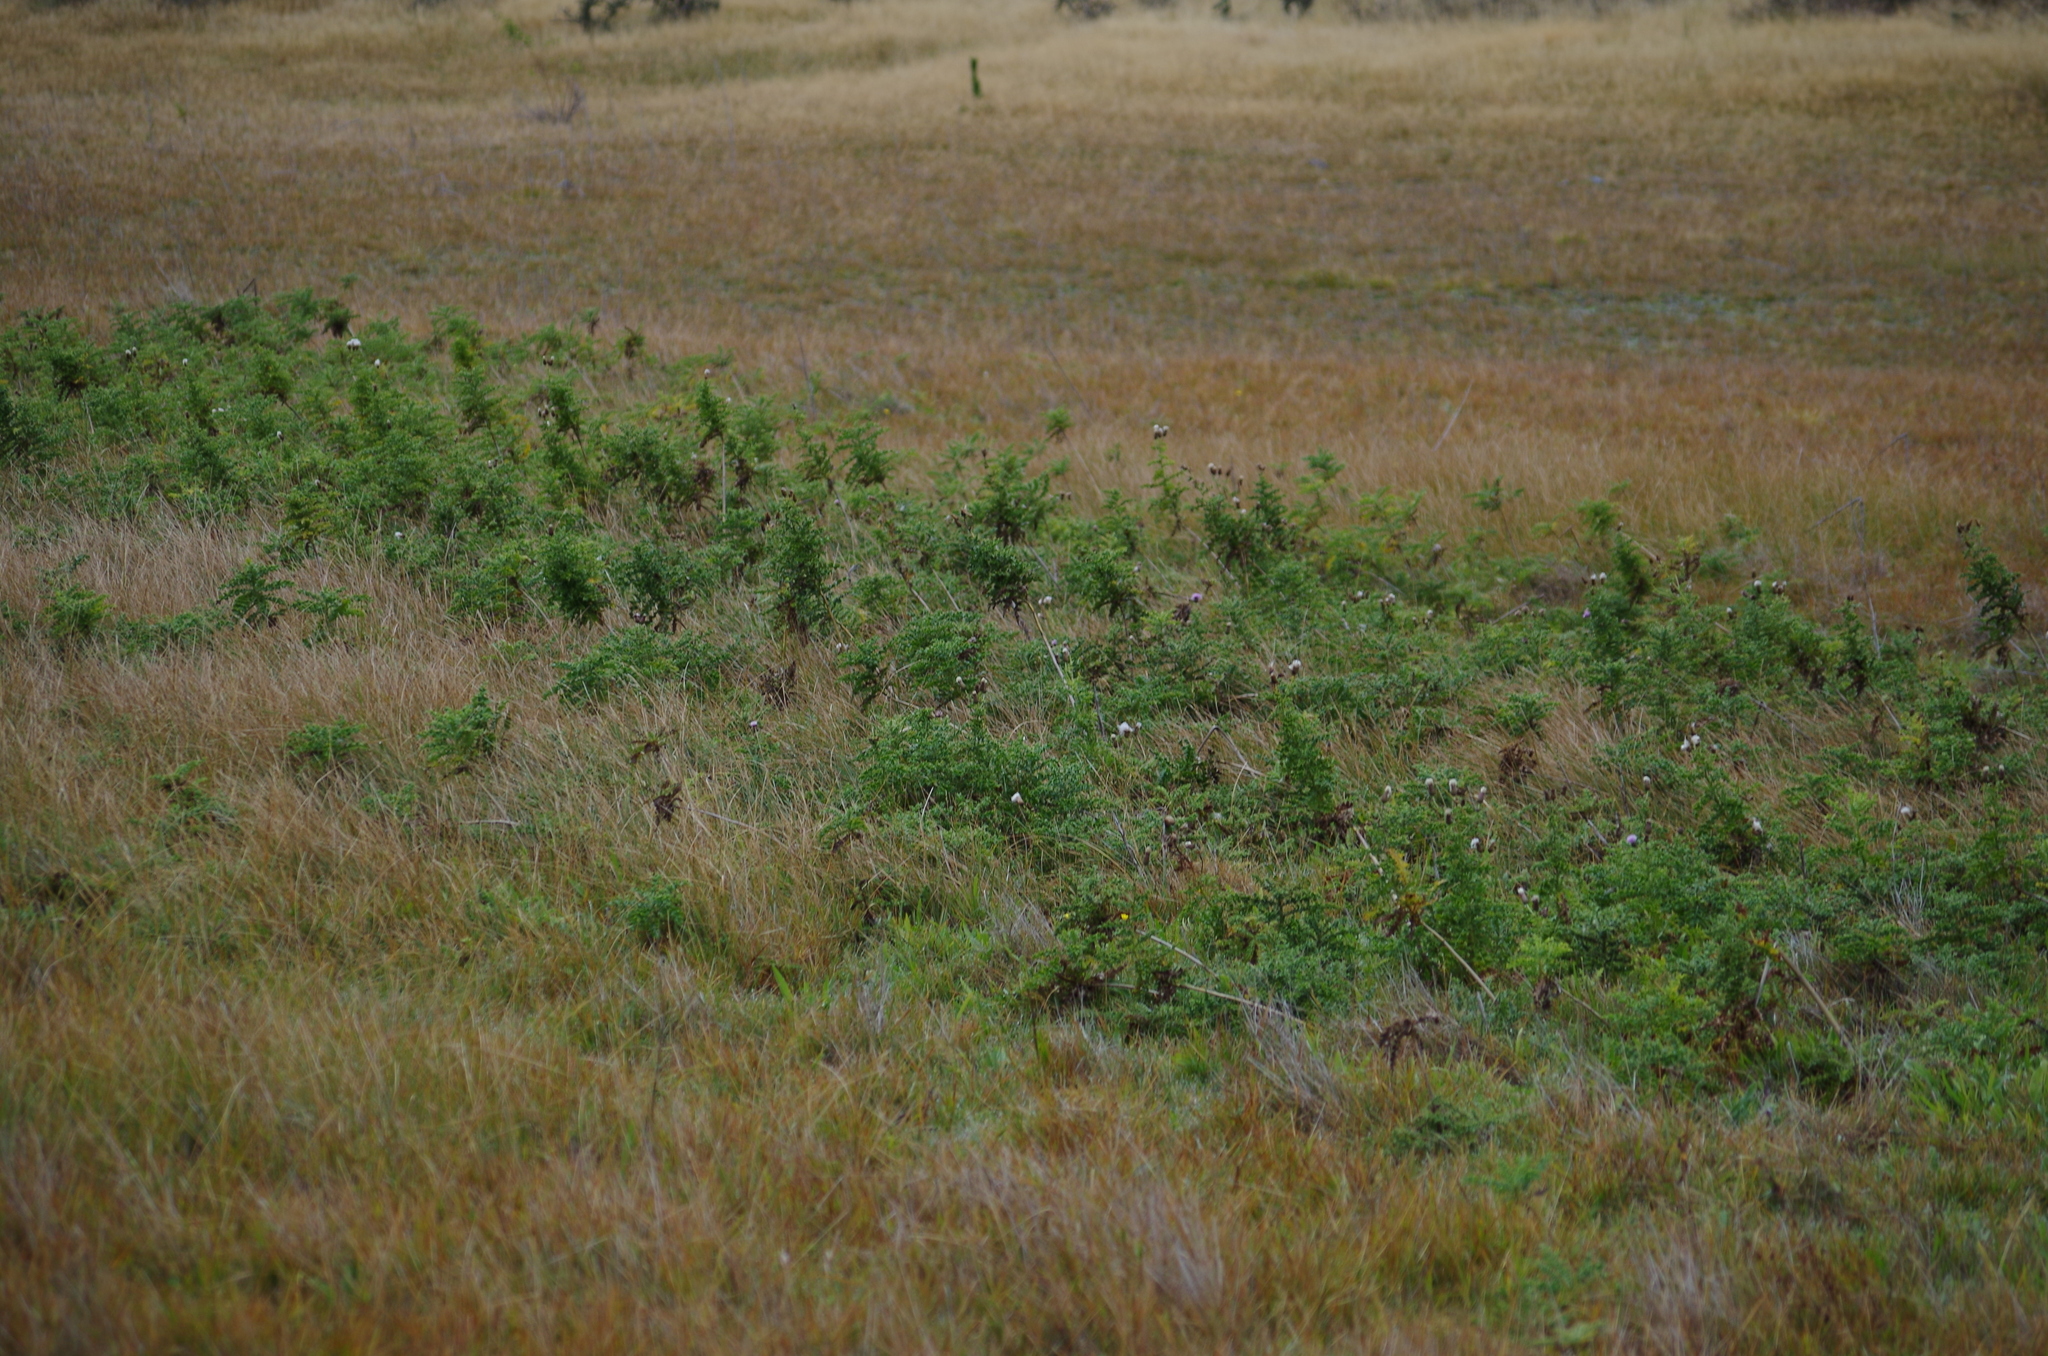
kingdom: Plantae
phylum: Tracheophyta
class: Magnoliopsida
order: Asterales
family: Asteraceae
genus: Cirsium
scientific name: Cirsium arvense
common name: Creeping thistle
